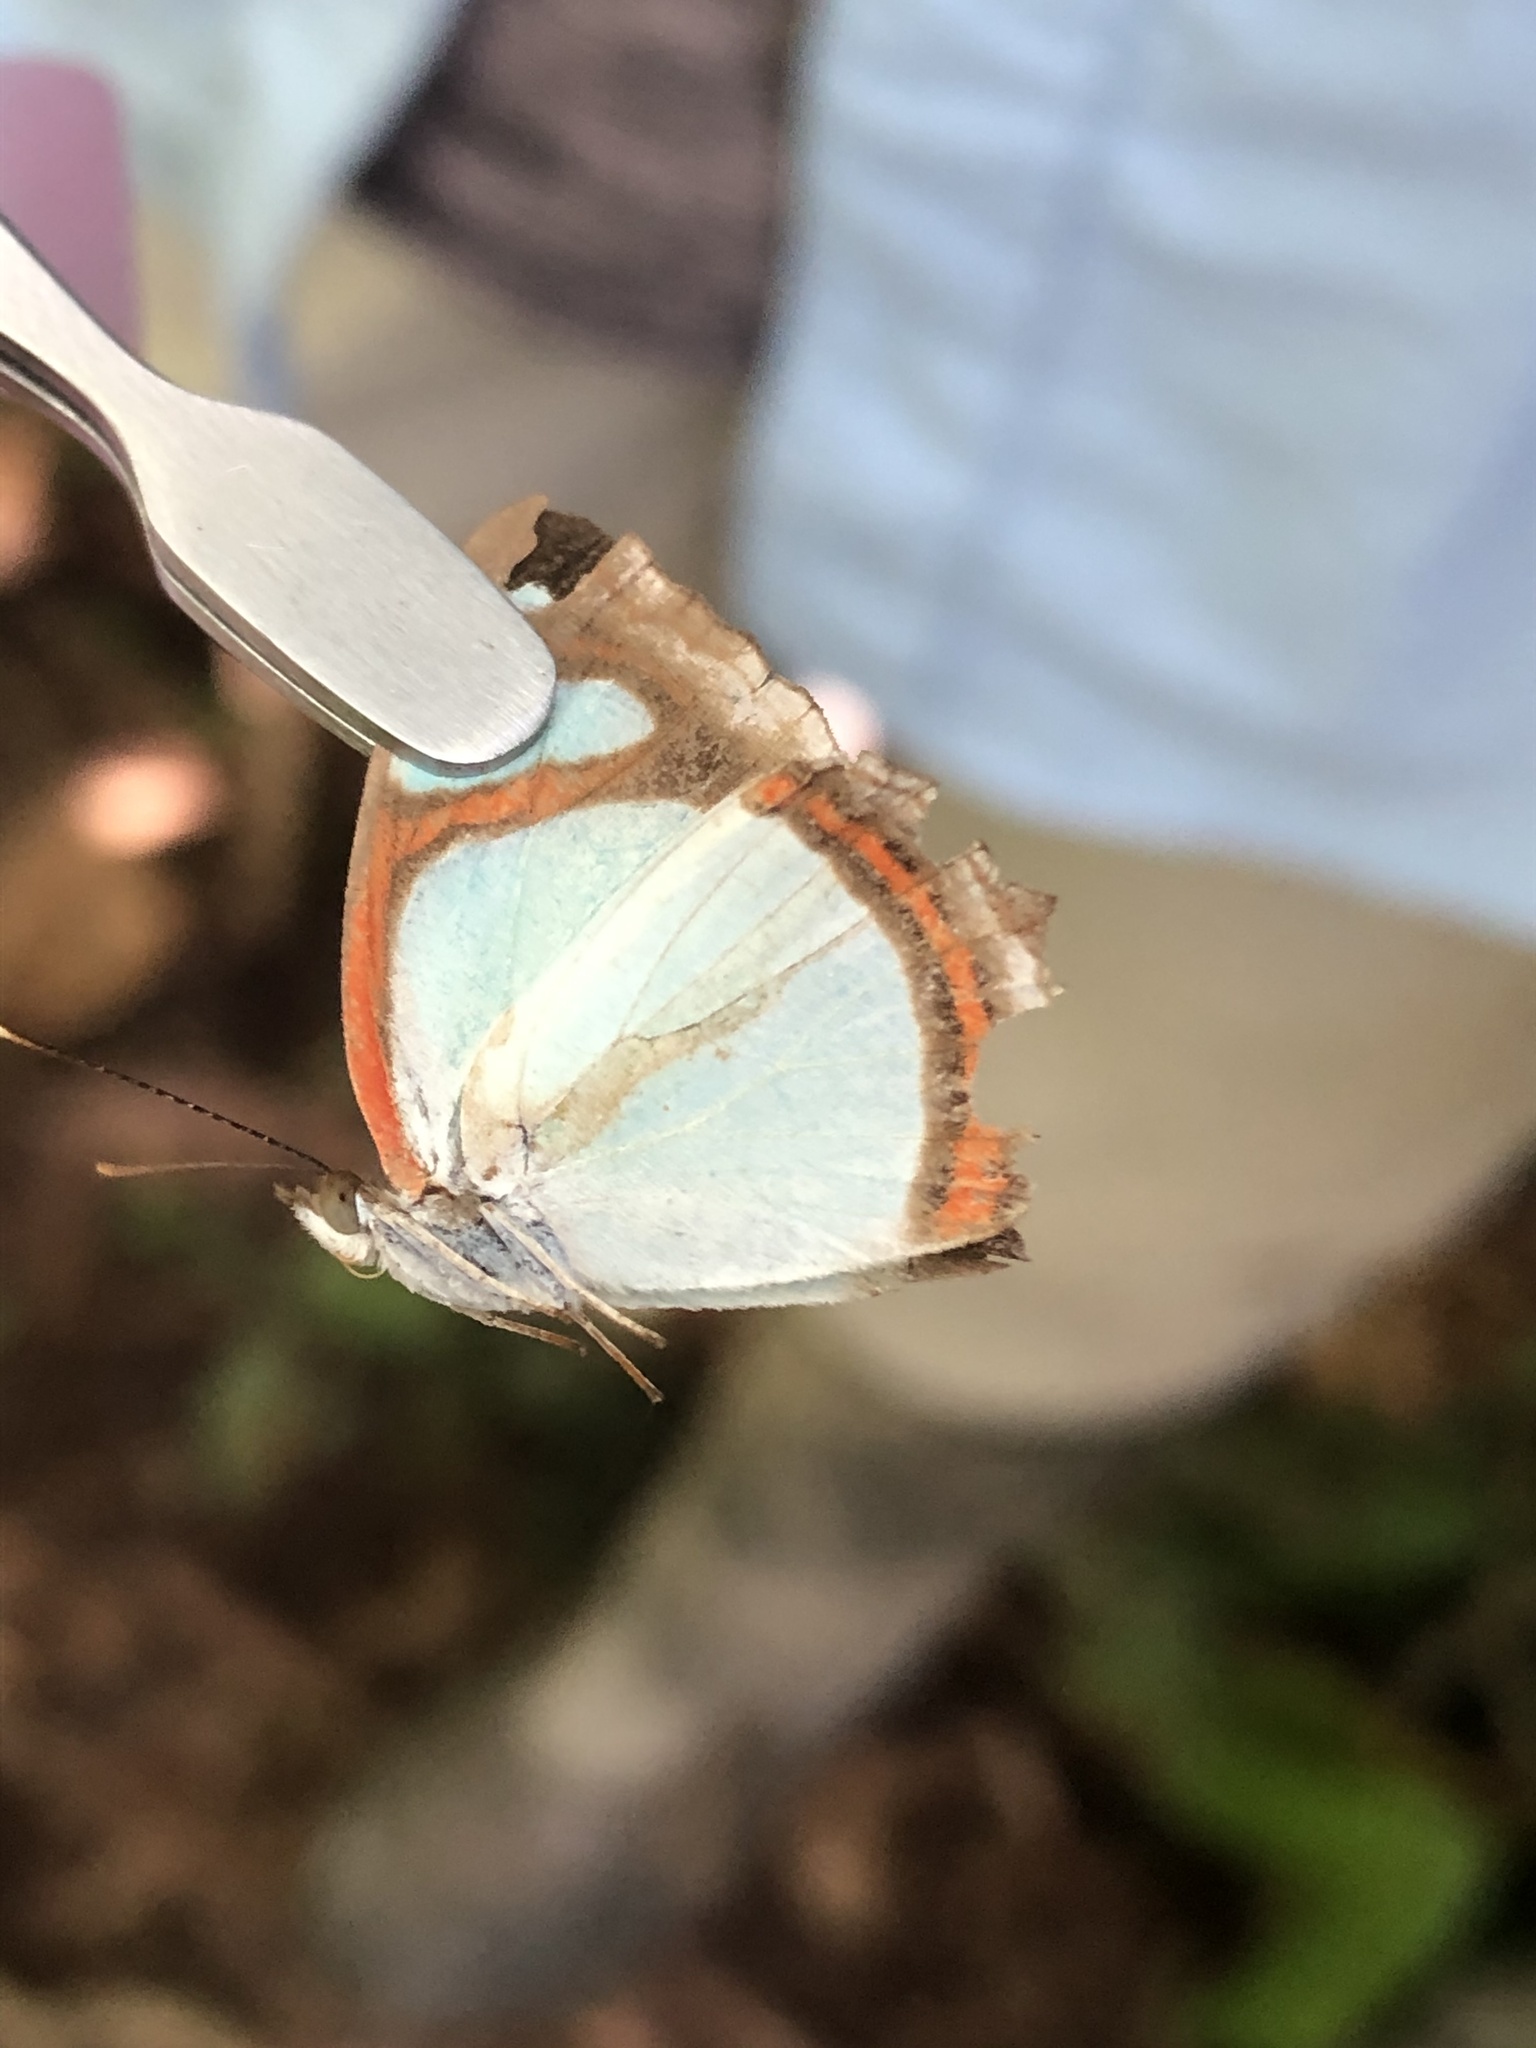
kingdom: Animalia
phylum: Arthropoda
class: Insecta
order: Lepidoptera
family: Nymphalidae
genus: Pyrrhogyra
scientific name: Pyrrhogyra crameri
